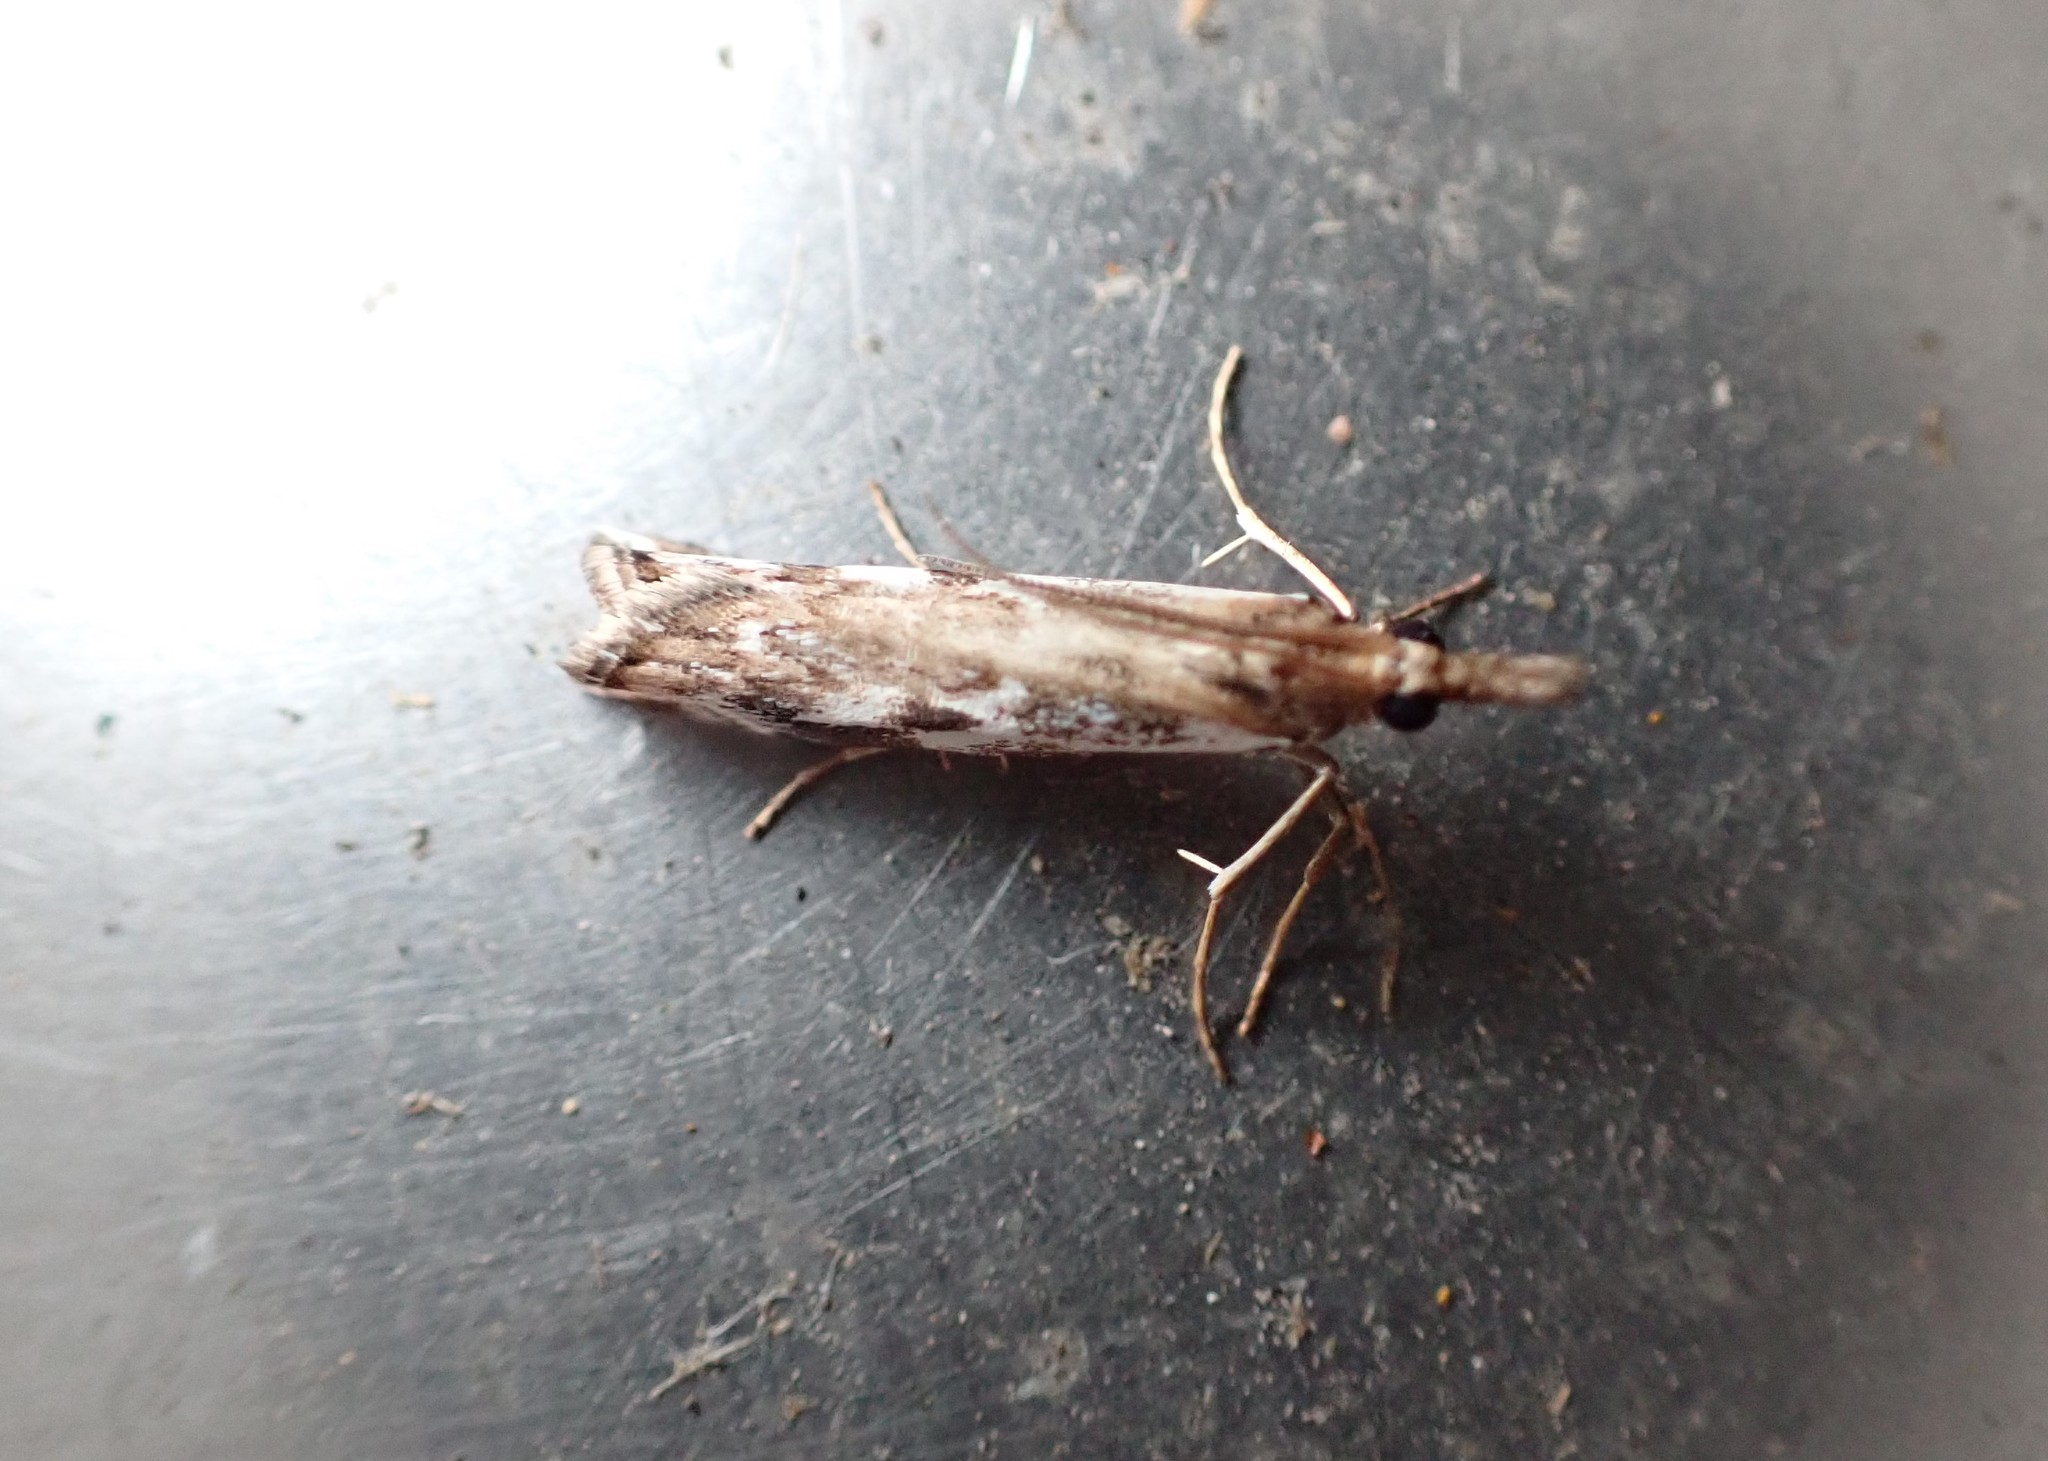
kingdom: Animalia
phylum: Arthropoda
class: Insecta
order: Lepidoptera
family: Crambidae
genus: Orocrambus
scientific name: Orocrambus vulgaris
